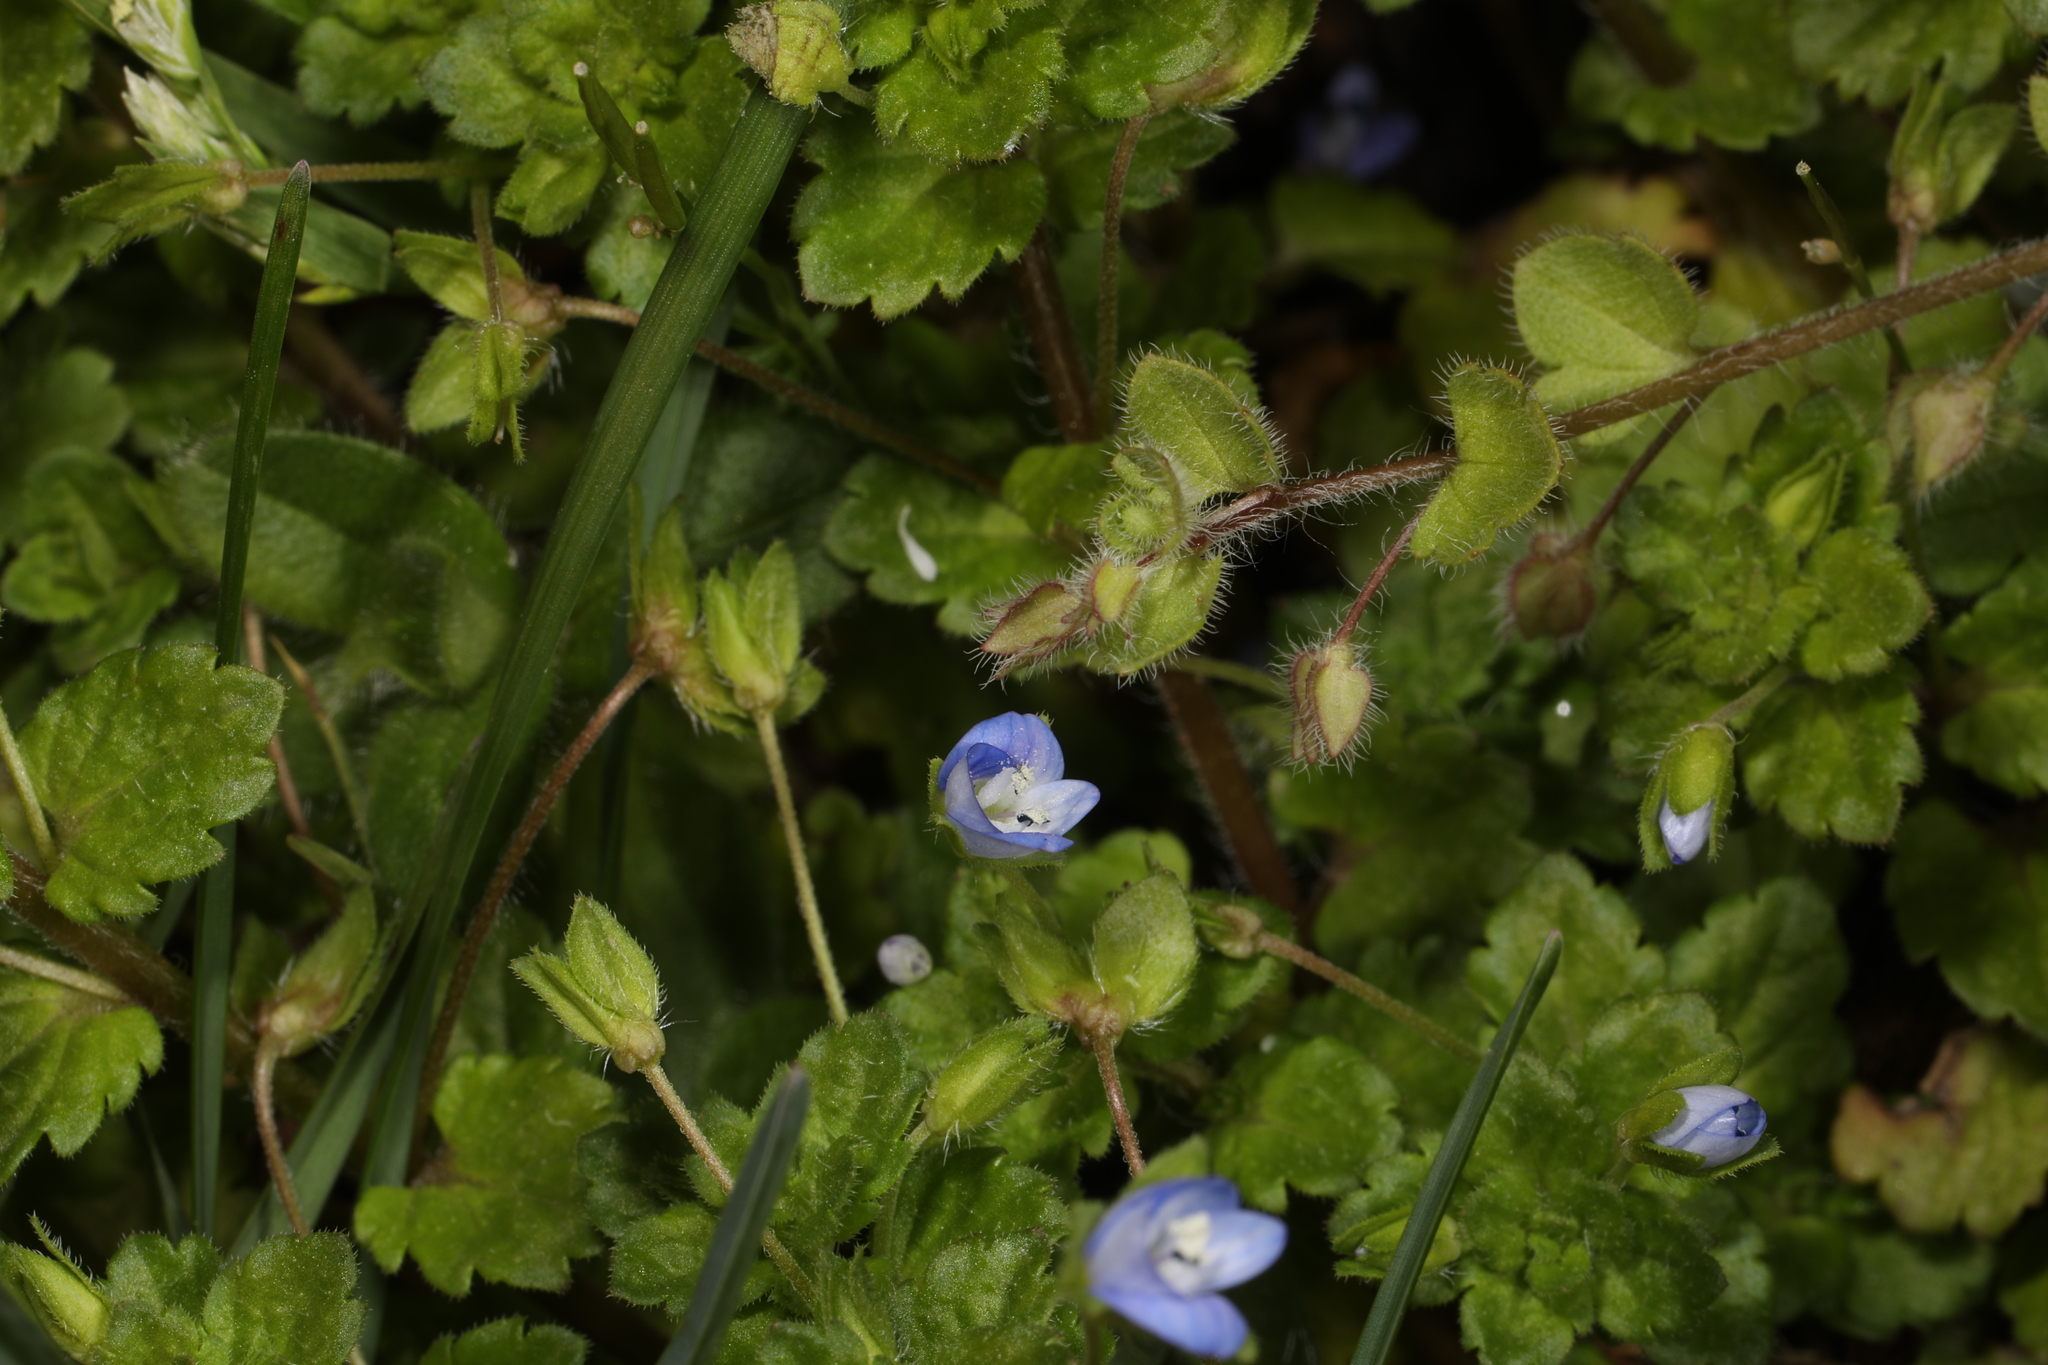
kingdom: Plantae
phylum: Tracheophyta
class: Magnoliopsida
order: Lamiales
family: Plantaginaceae
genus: Veronica
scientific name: Veronica persica
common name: Common field-speedwell
